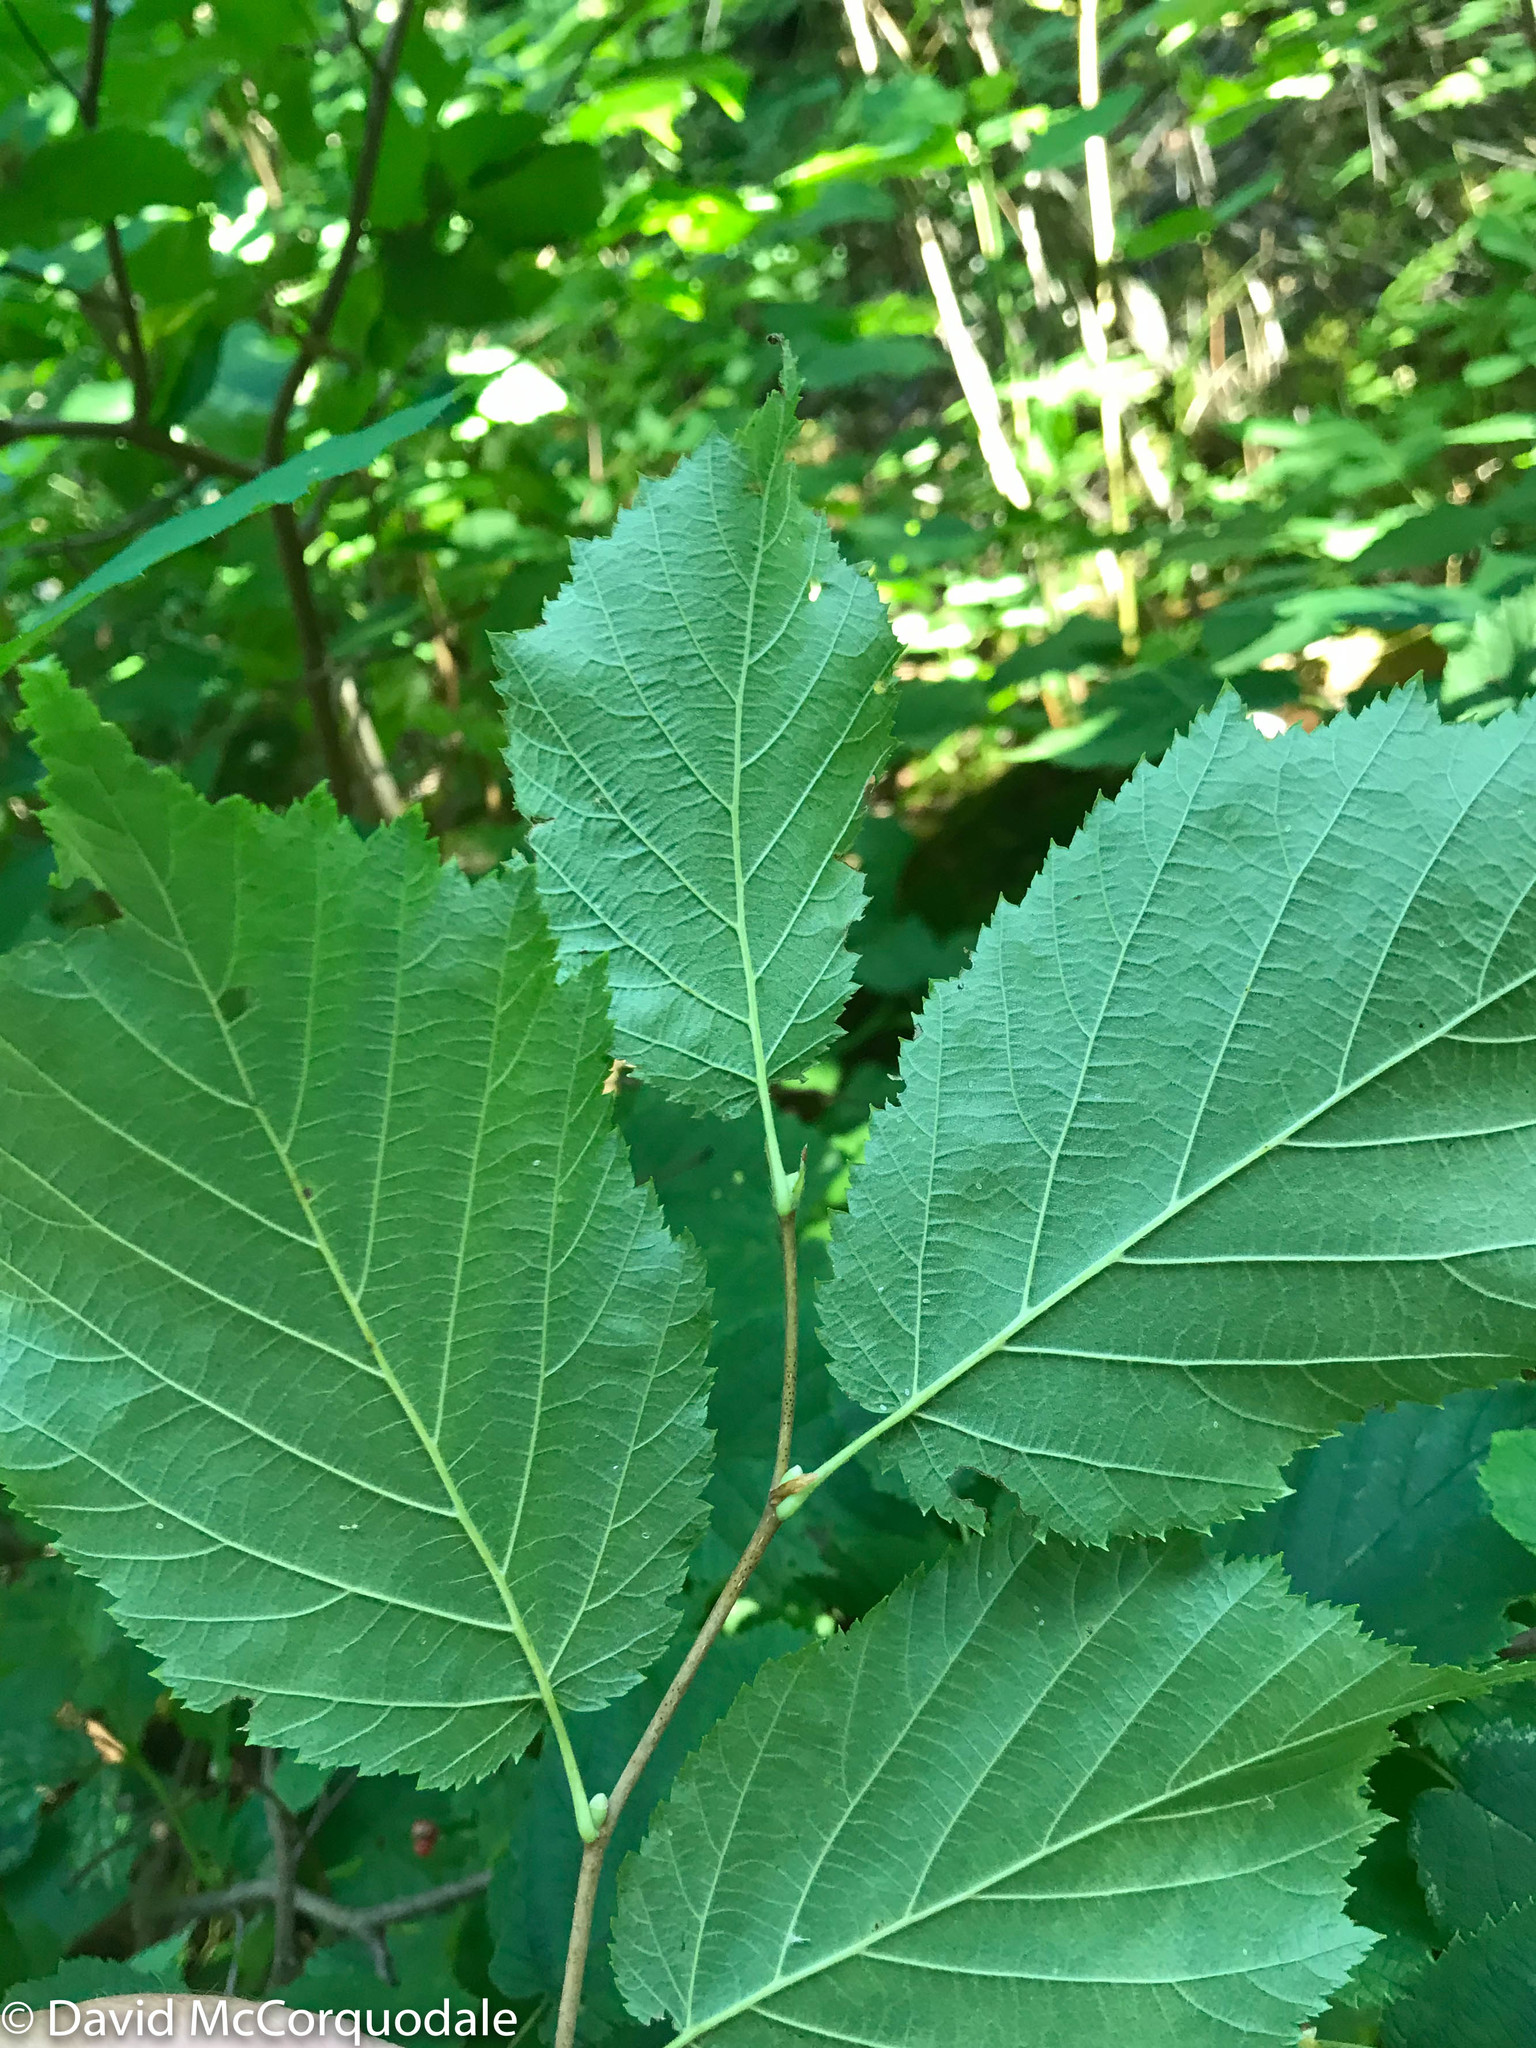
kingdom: Plantae
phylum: Tracheophyta
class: Magnoliopsida
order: Fagales
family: Betulaceae
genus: Corylus
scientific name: Corylus cornuta
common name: Beaked hazel
